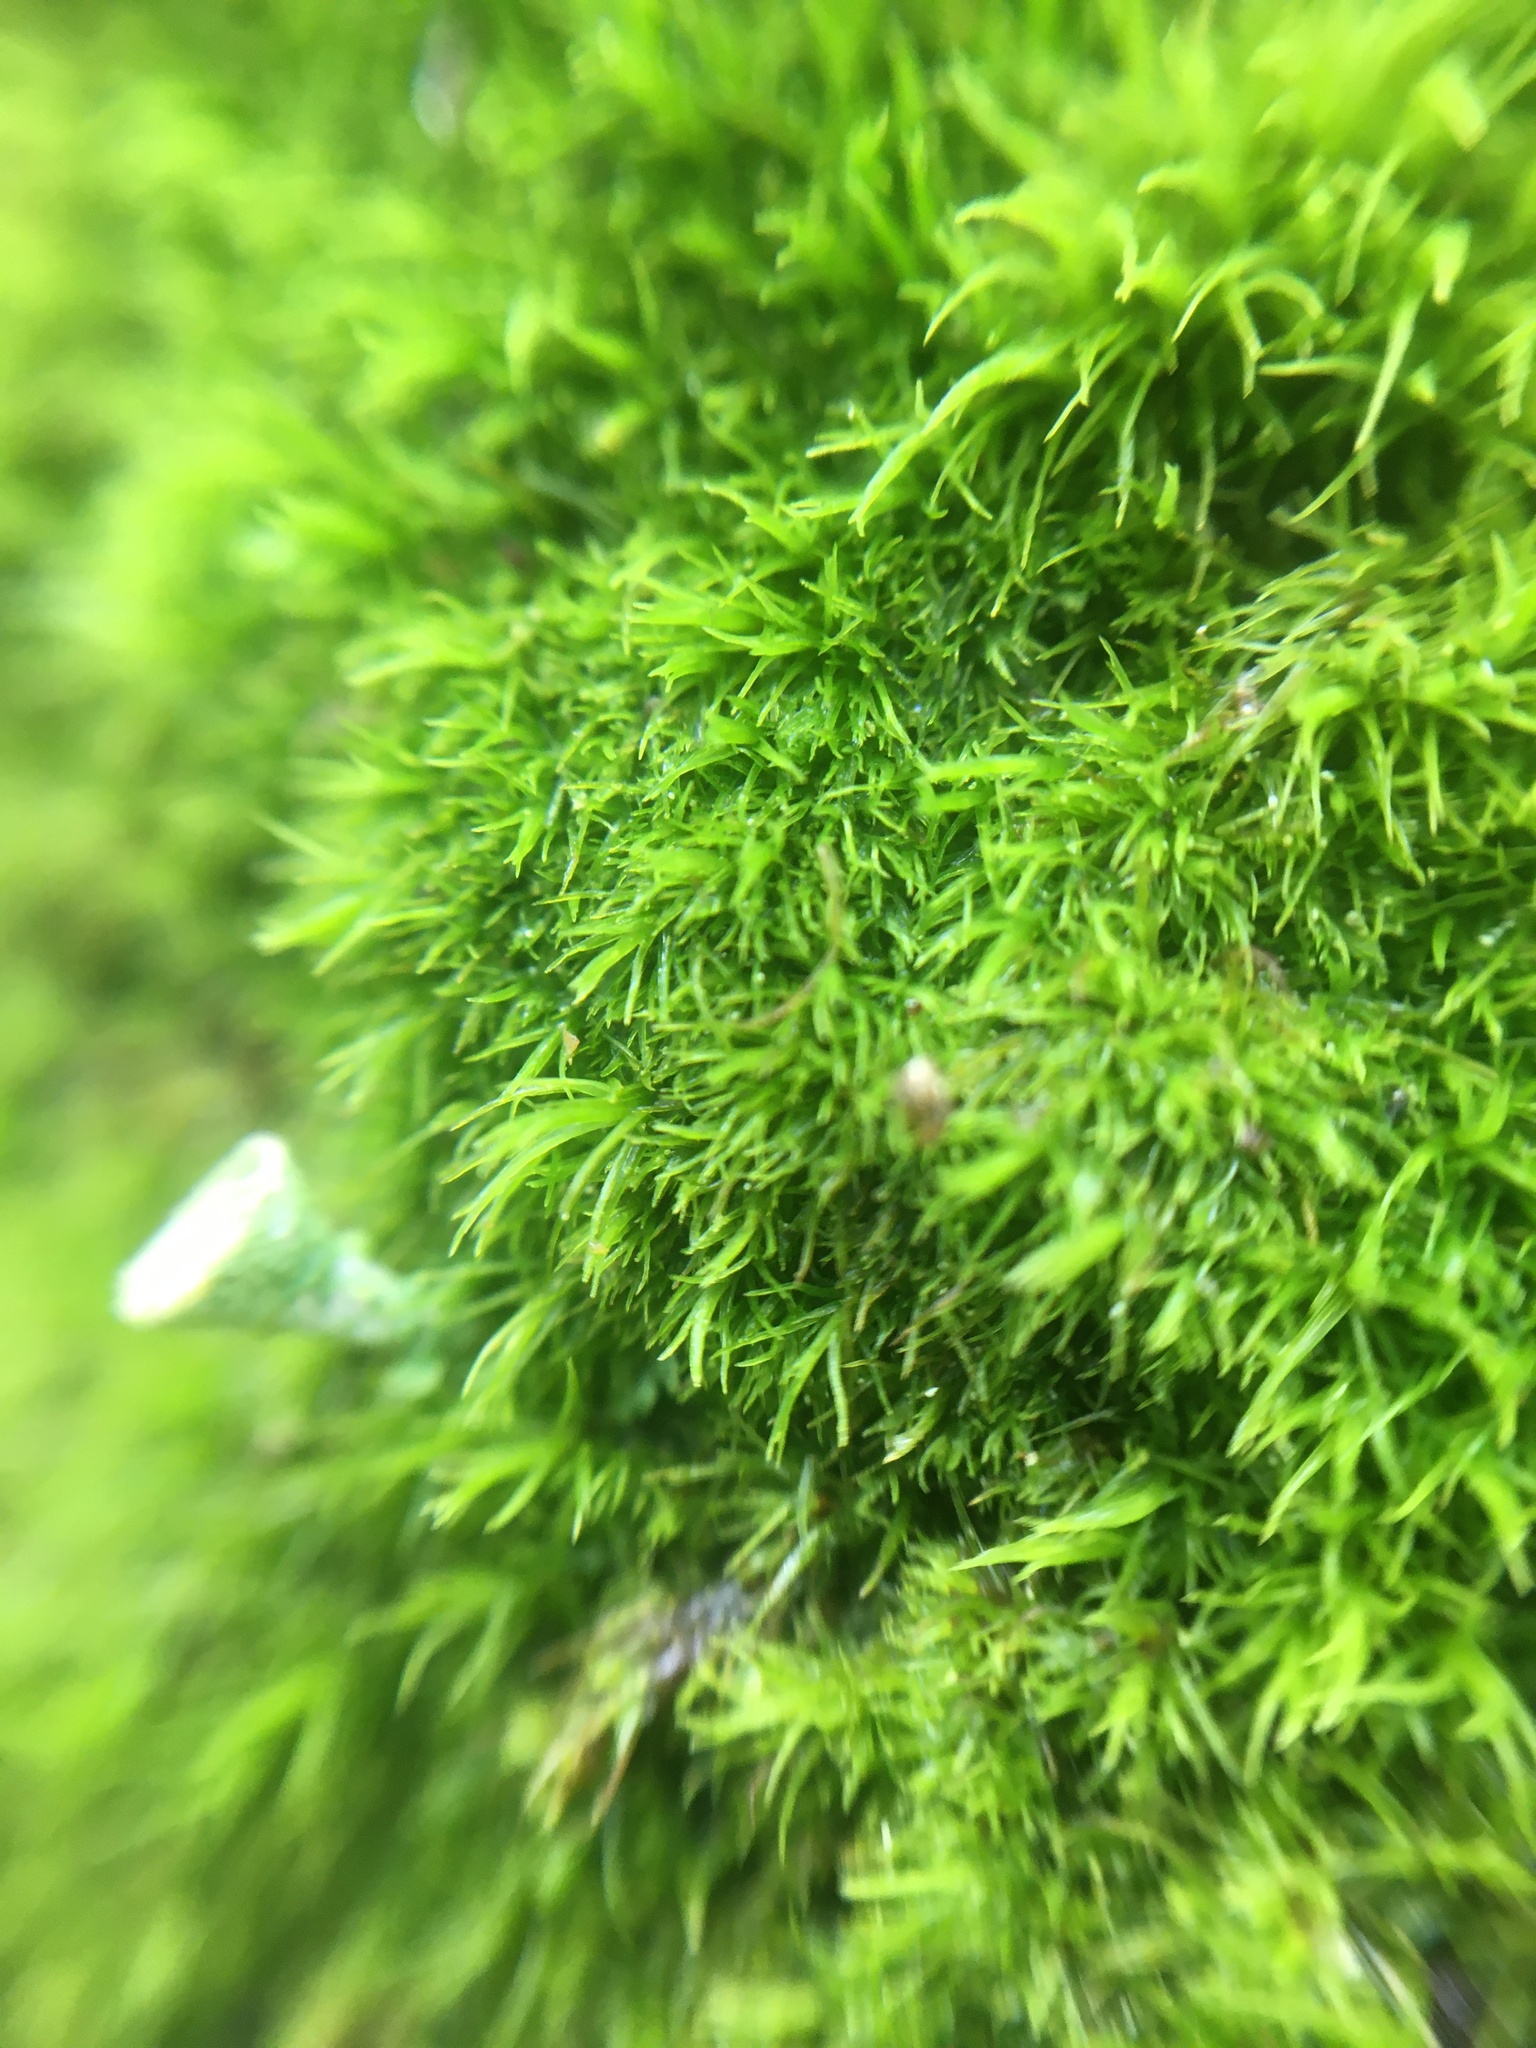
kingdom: Plantae
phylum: Bryophyta
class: Bryopsida
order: Dicranales
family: Dicranaceae
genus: Orthodicranum
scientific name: Orthodicranum montanum
